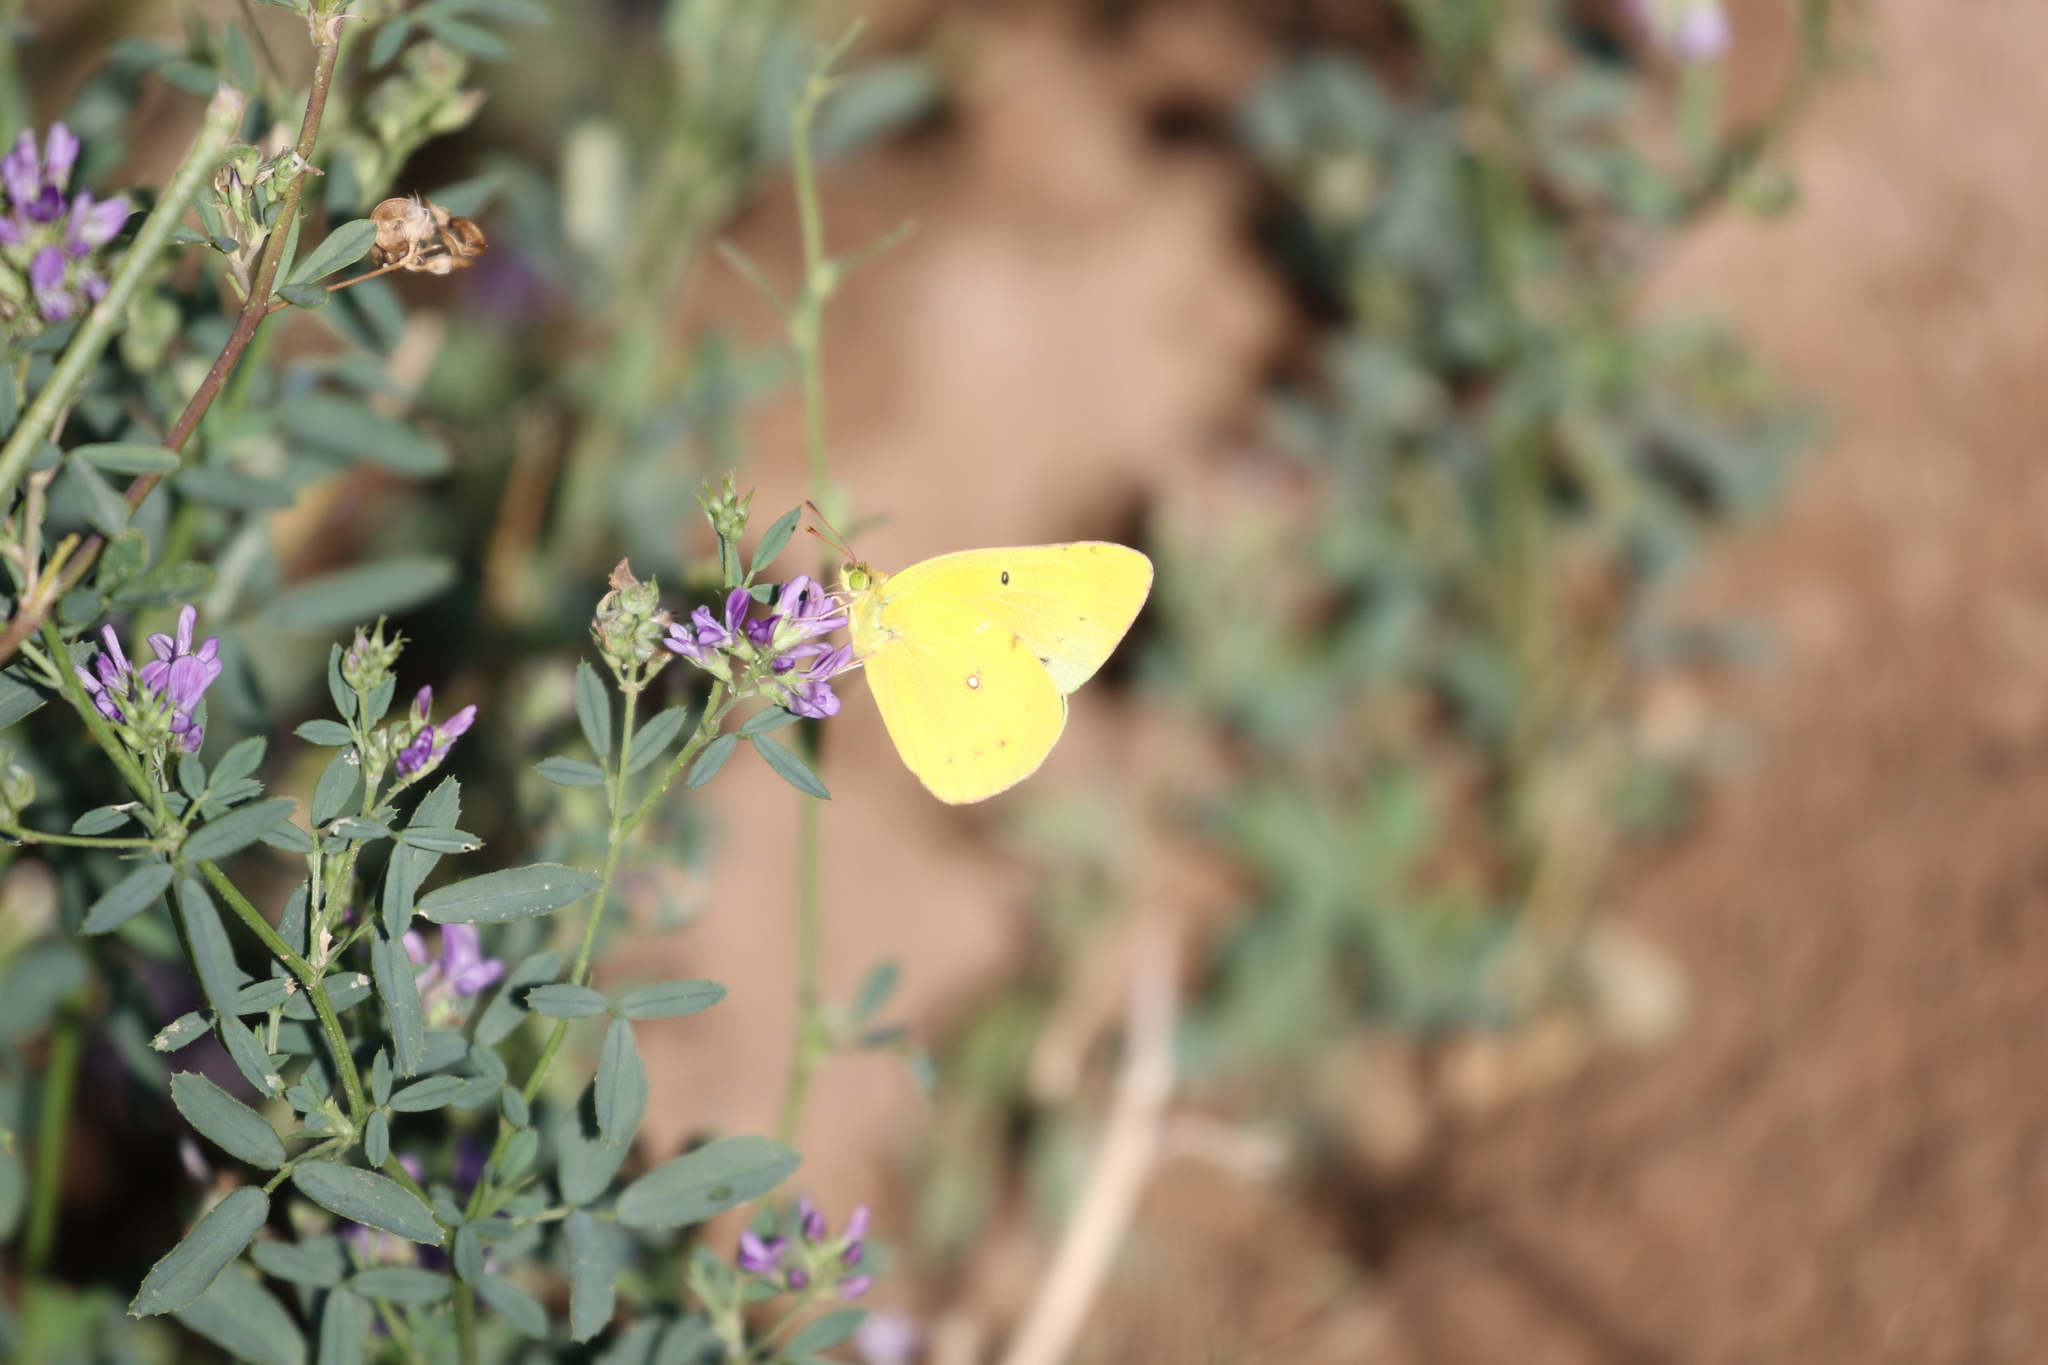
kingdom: Animalia
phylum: Arthropoda
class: Insecta
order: Lepidoptera
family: Pieridae
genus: Colias
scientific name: Colias eurytheme
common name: Alfalfa butterfly
